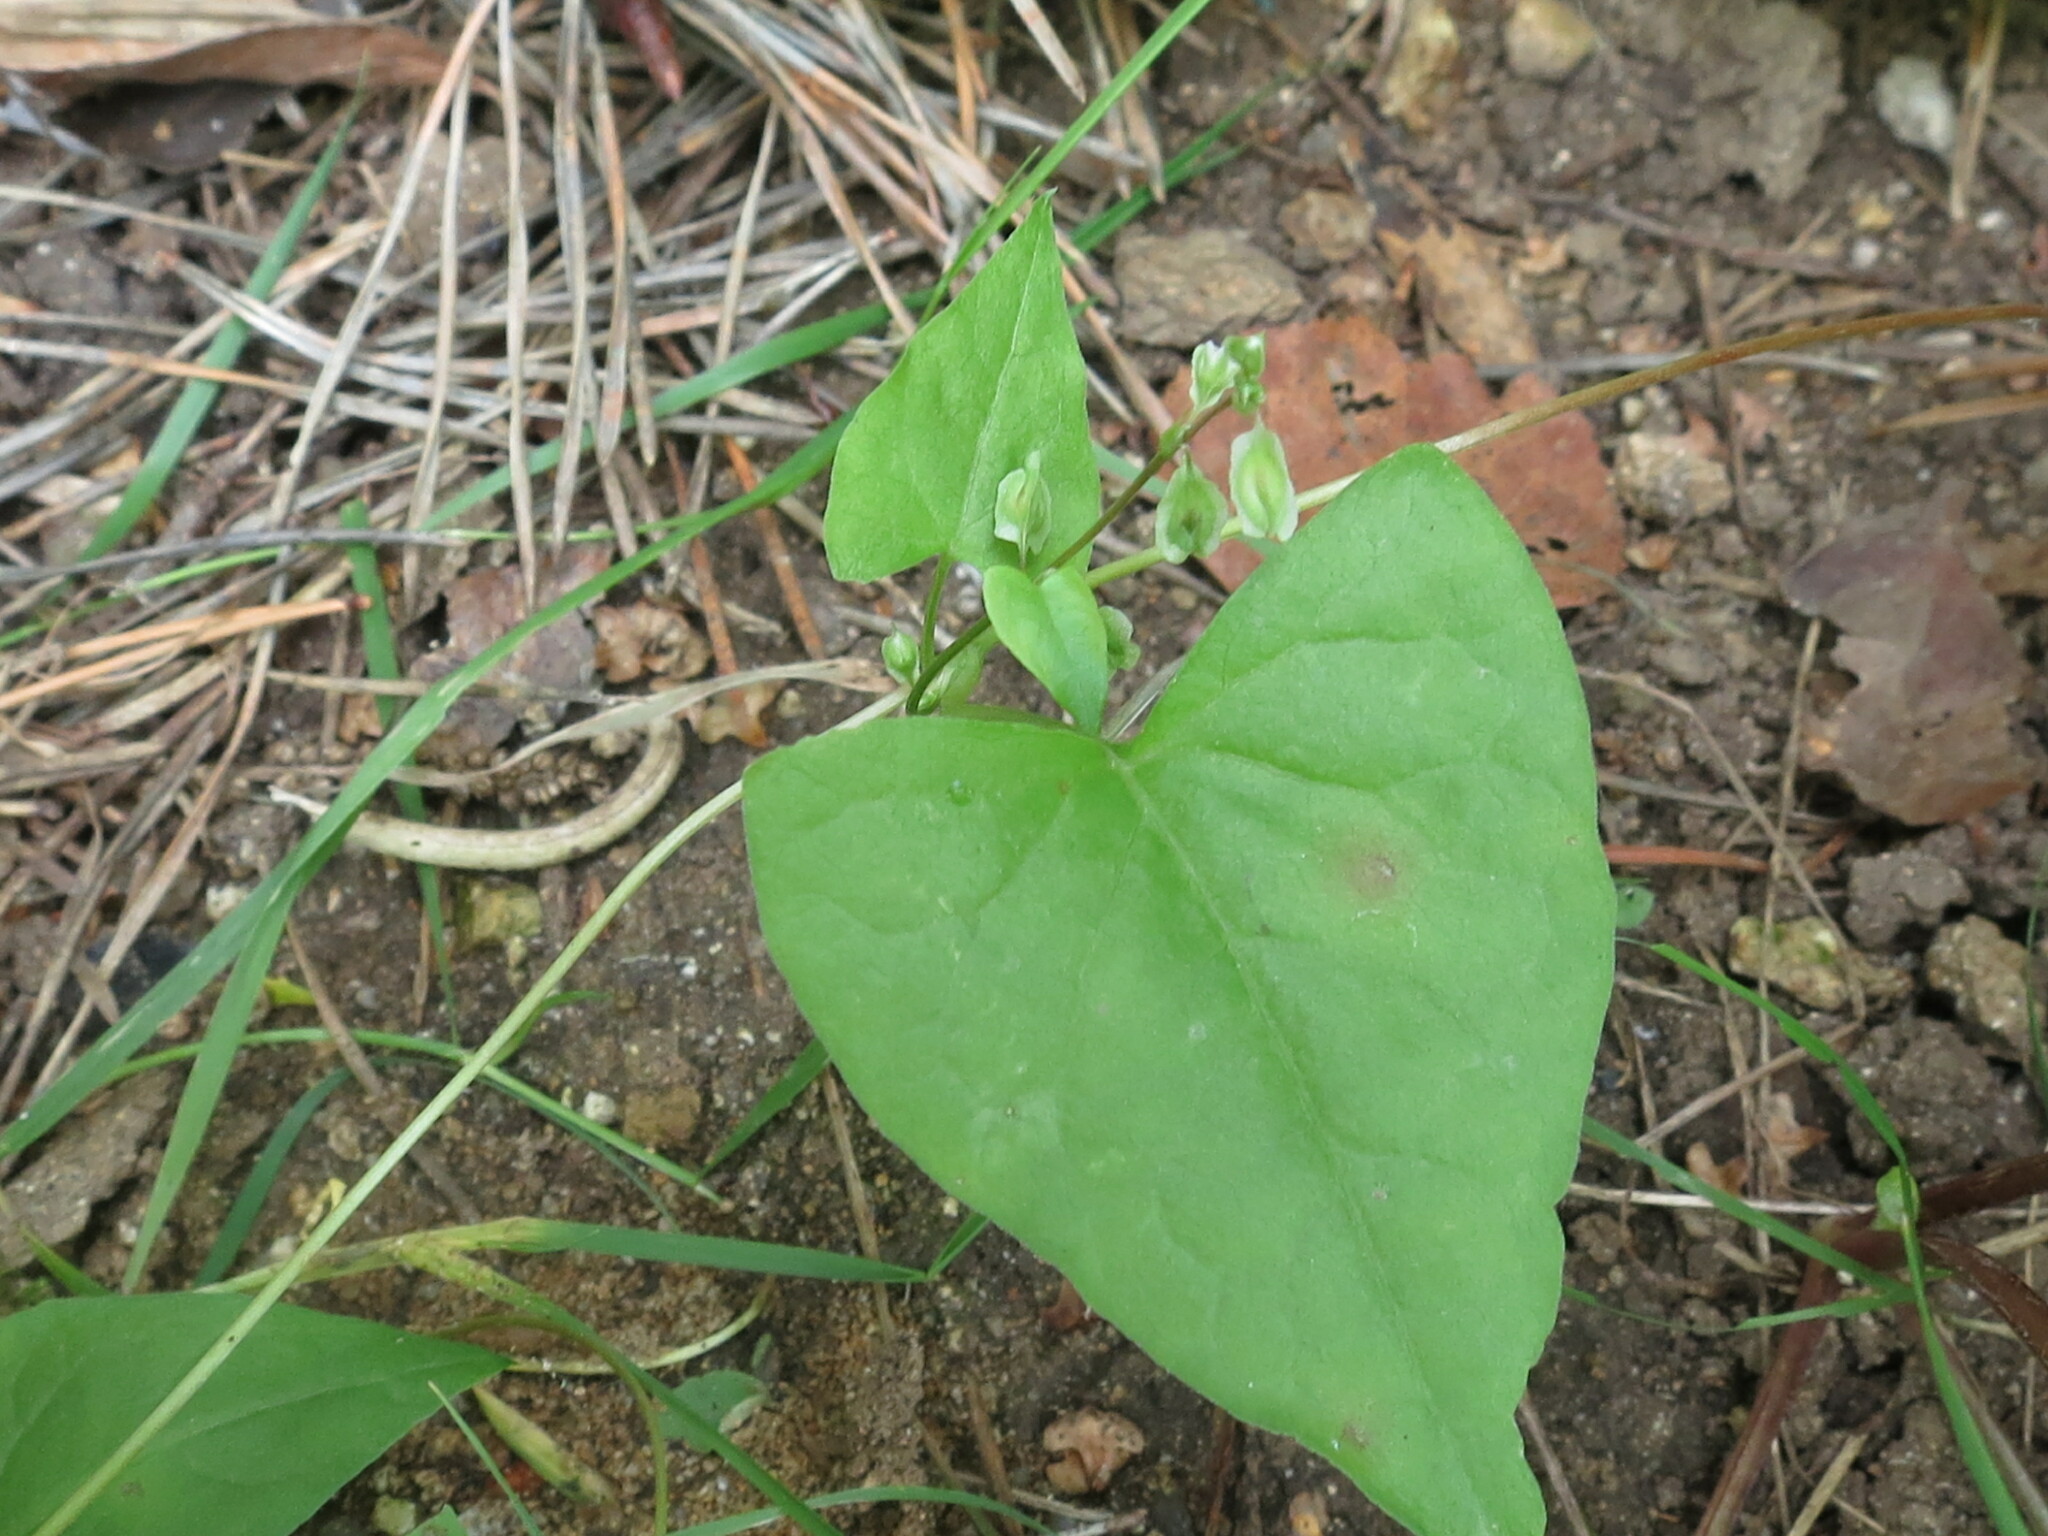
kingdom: Plantae
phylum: Tracheophyta
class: Magnoliopsida
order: Caryophyllales
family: Polygonaceae
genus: Fallopia
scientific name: Fallopia dumetorum
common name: Copse-bindweed
